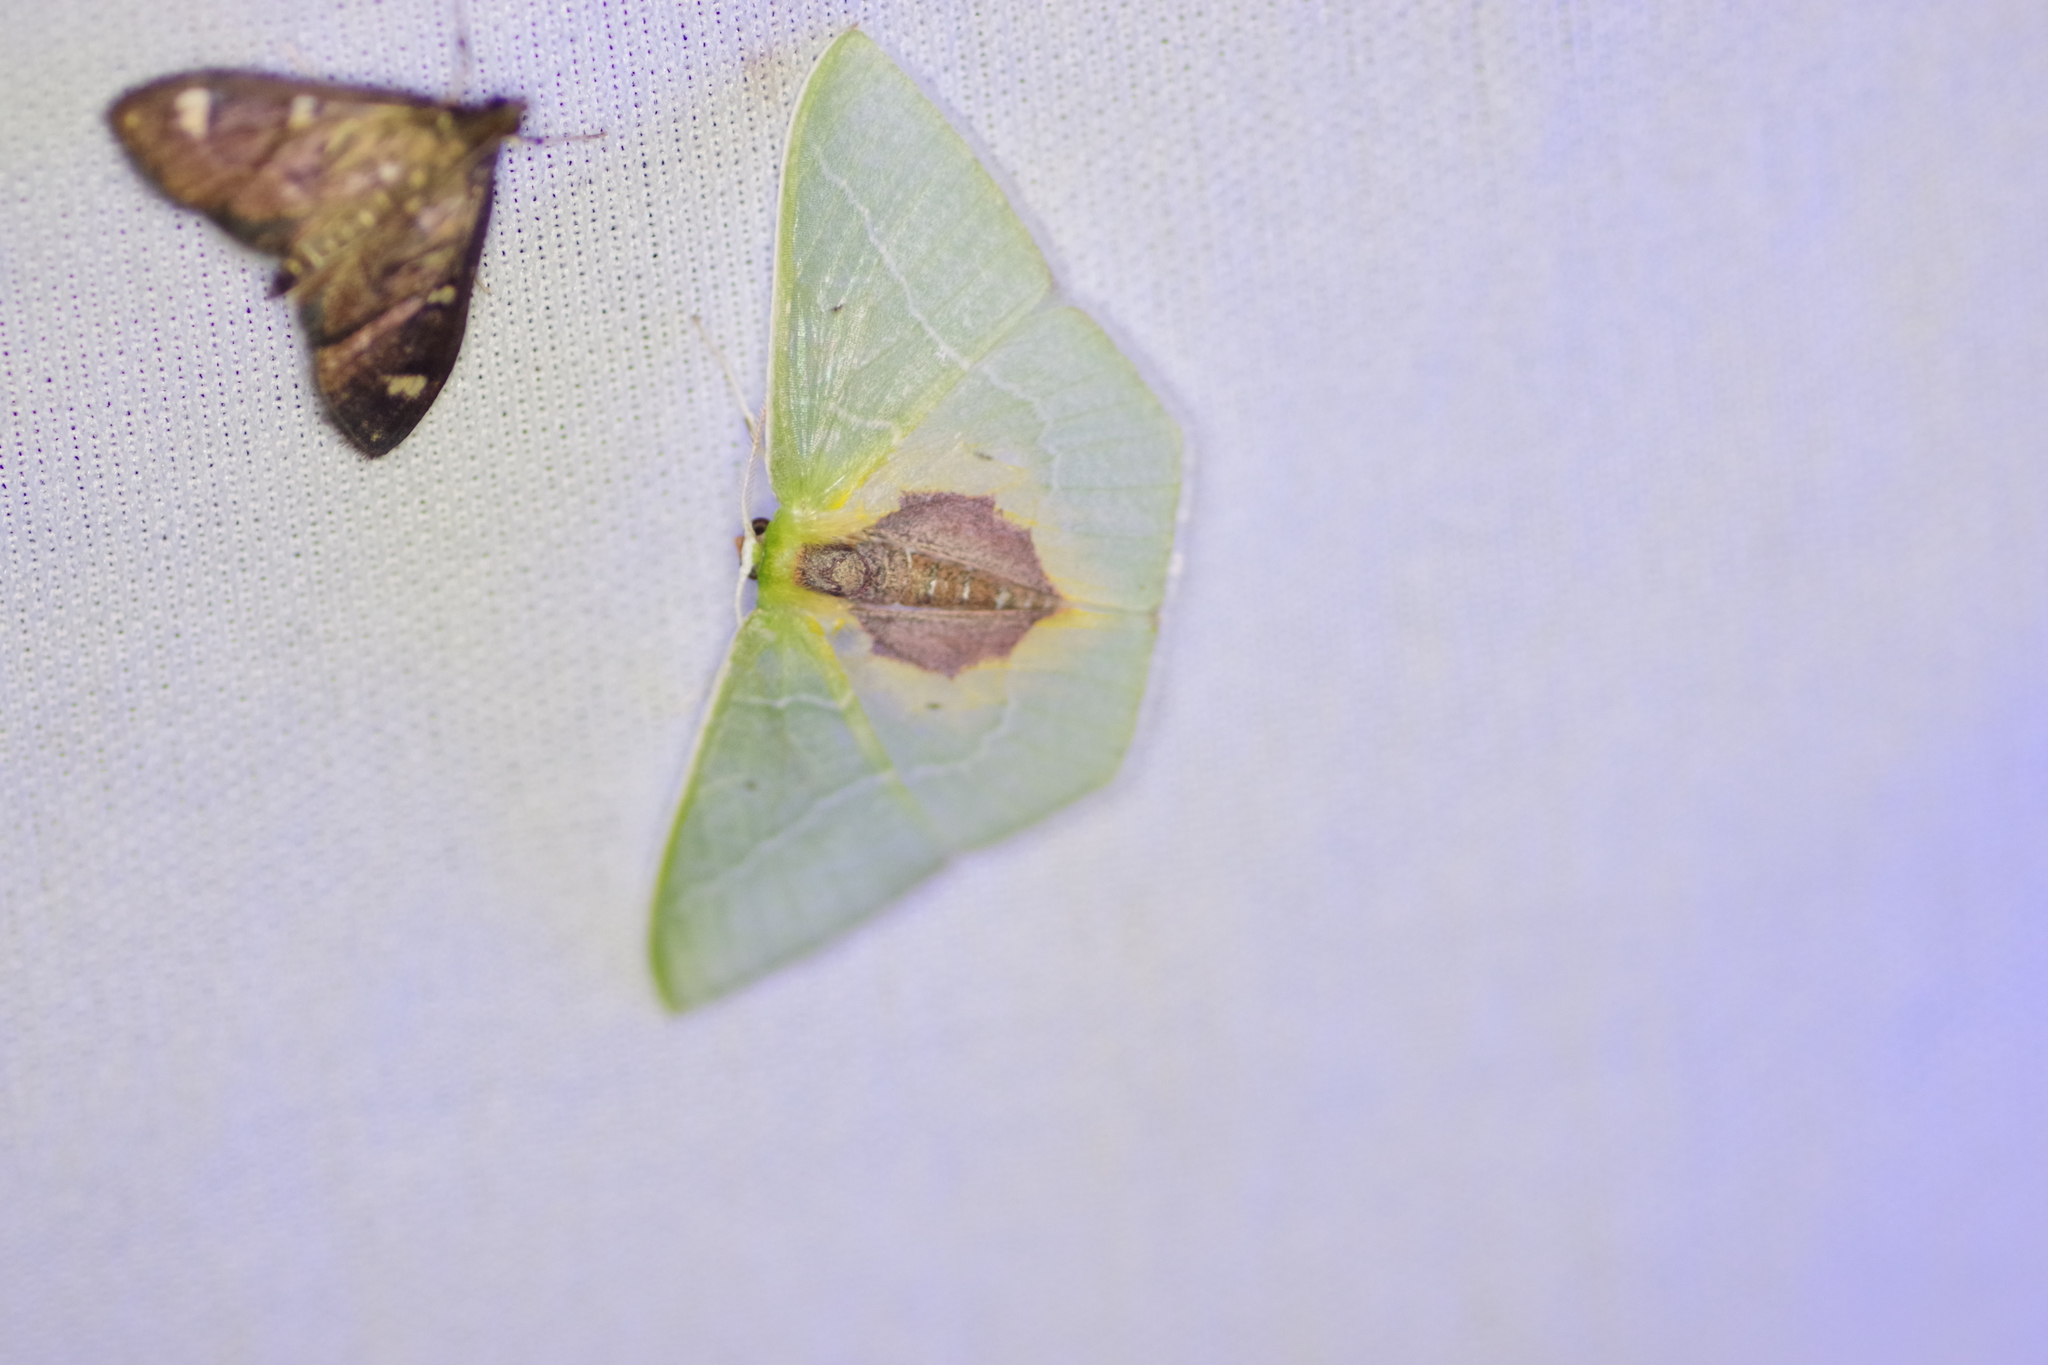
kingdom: Animalia
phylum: Arthropoda
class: Insecta
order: Lepidoptera
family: Geometridae
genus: Nemoria
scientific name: Nemoria astraea
